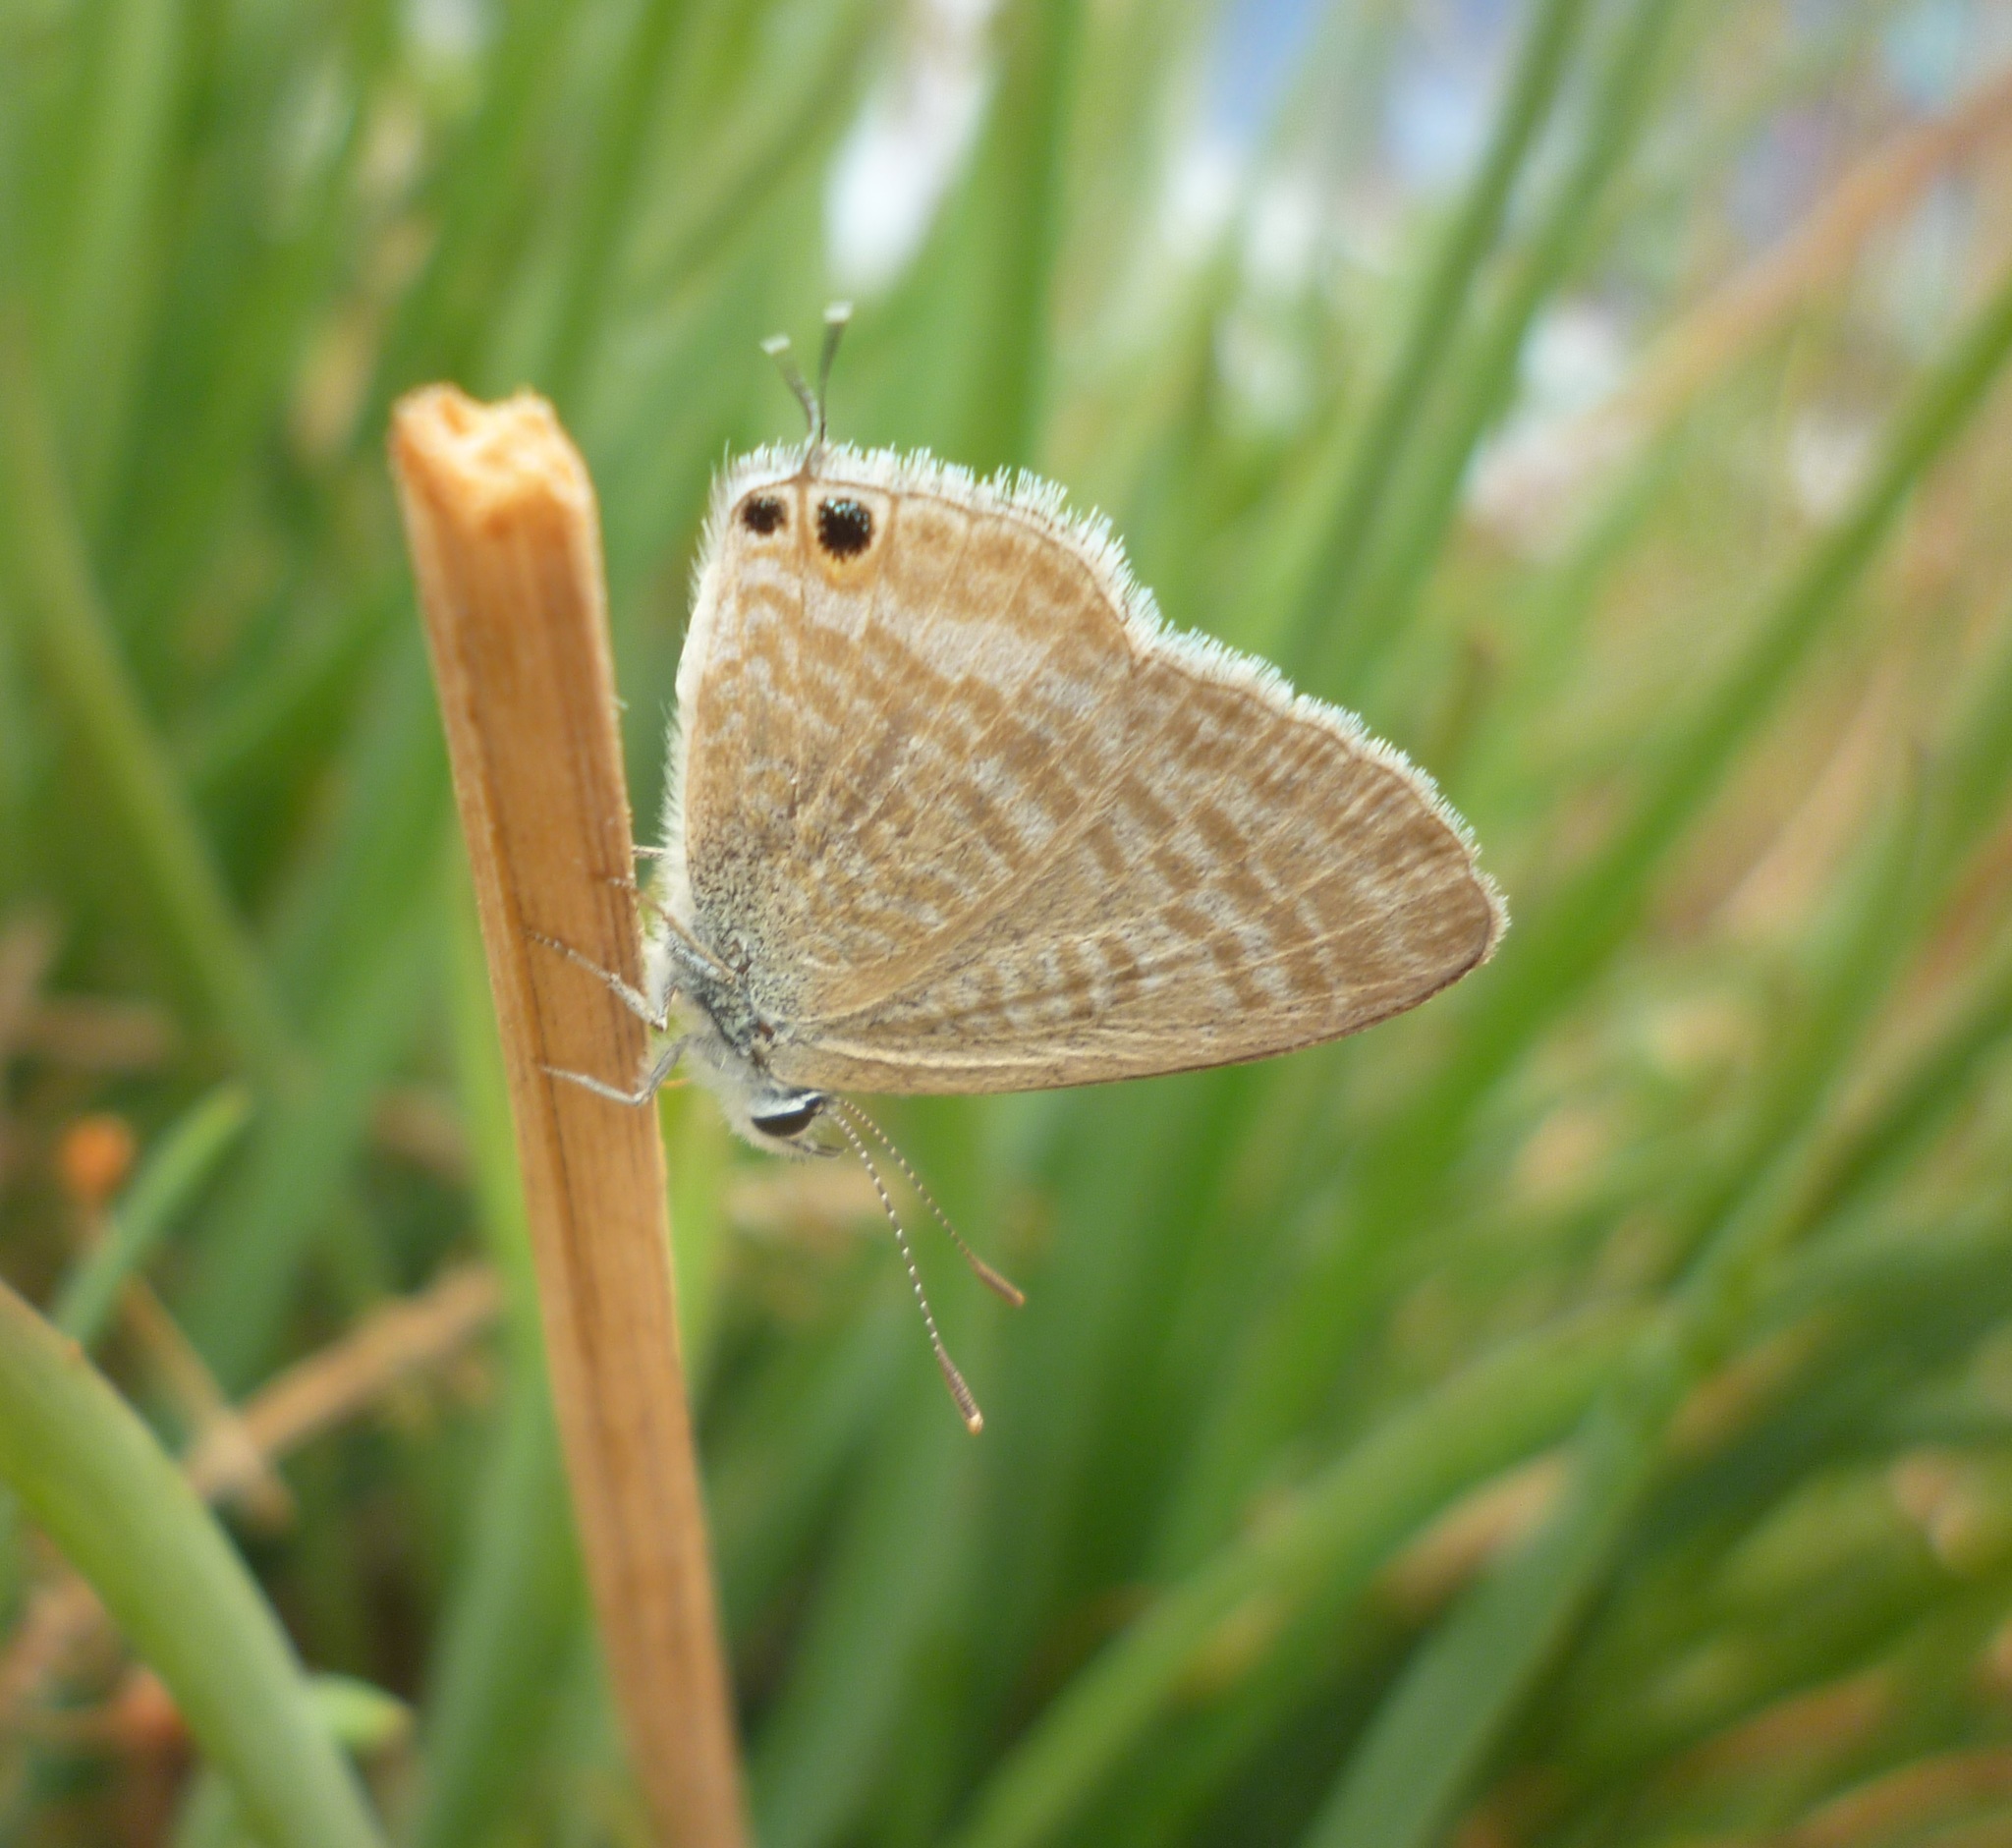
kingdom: Animalia
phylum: Arthropoda
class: Insecta
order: Lepidoptera
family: Lycaenidae
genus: Lampides
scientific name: Lampides boeticus
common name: Long-tailed blue
